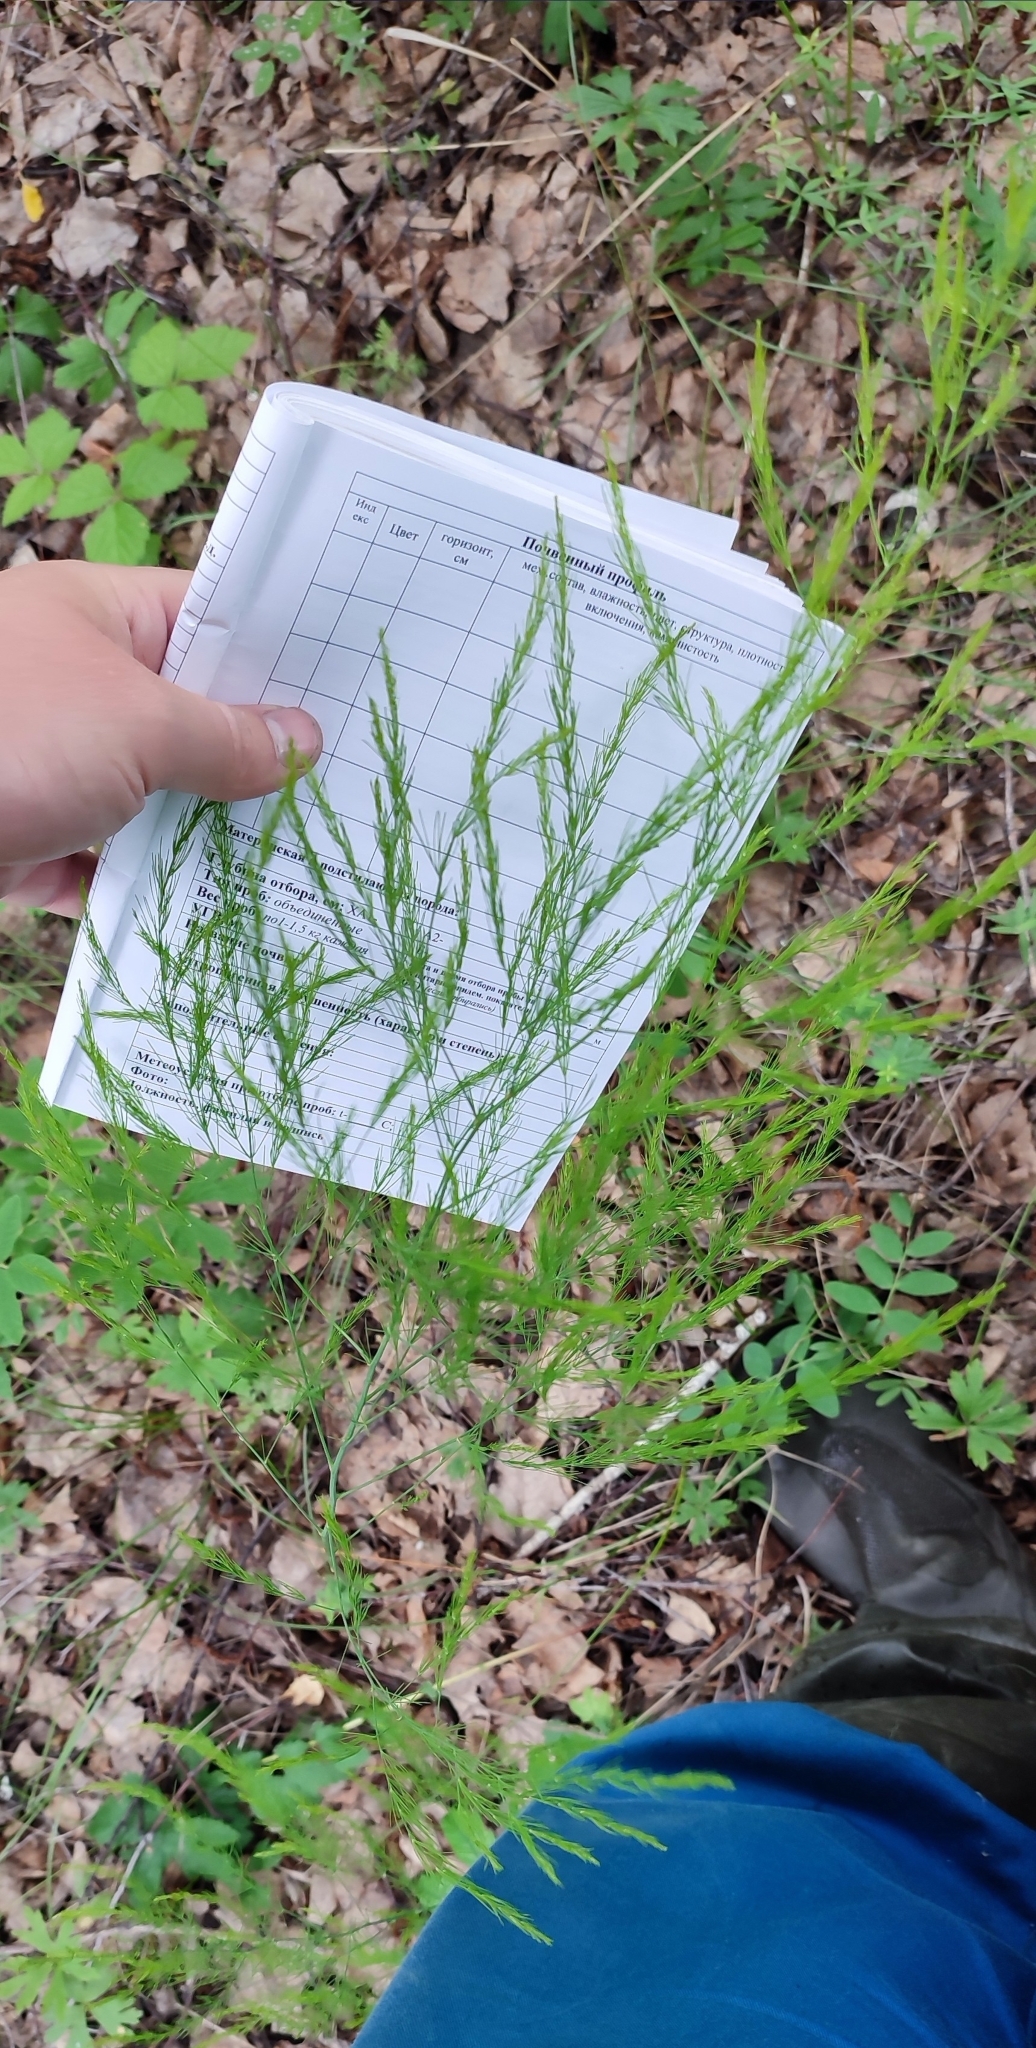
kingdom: Plantae
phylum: Tracheophyta
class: Liliopsida
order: Asparagales
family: Asparagaceae
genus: Asparagus
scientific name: Asparagus officinalis
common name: Garden asparagus
